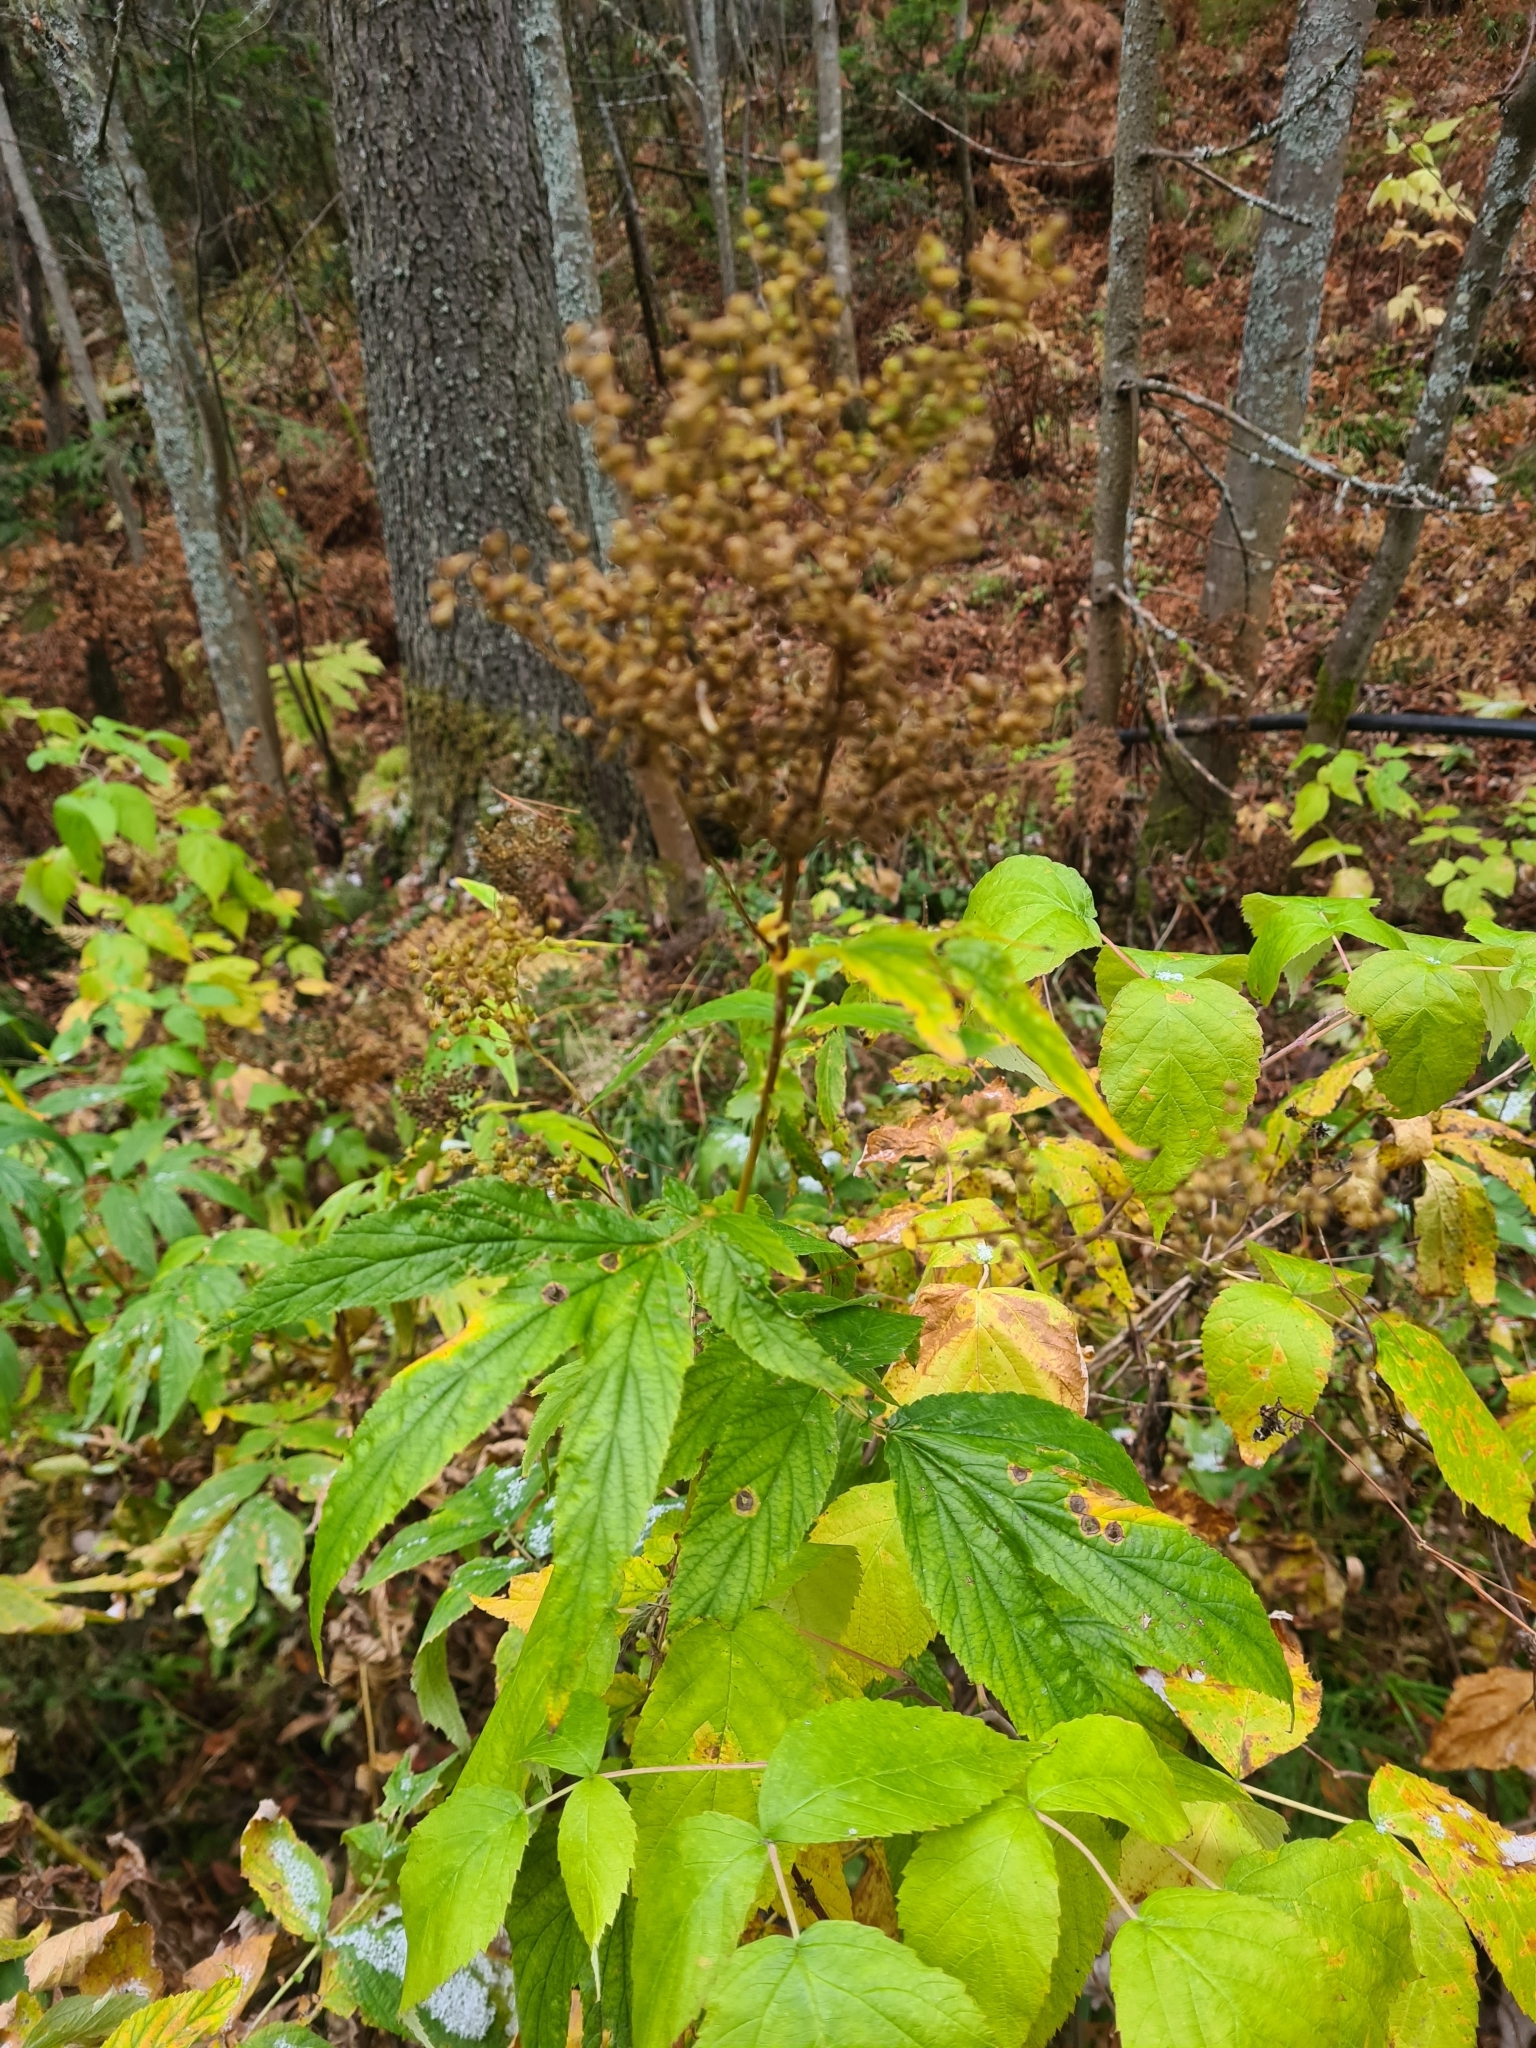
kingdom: Plantae
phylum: Tracheophyta
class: Magnoliopsida
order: Rosales
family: Rosaceae
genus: Filipendula
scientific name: Filipendula ulmaria
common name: Meadowsweet
